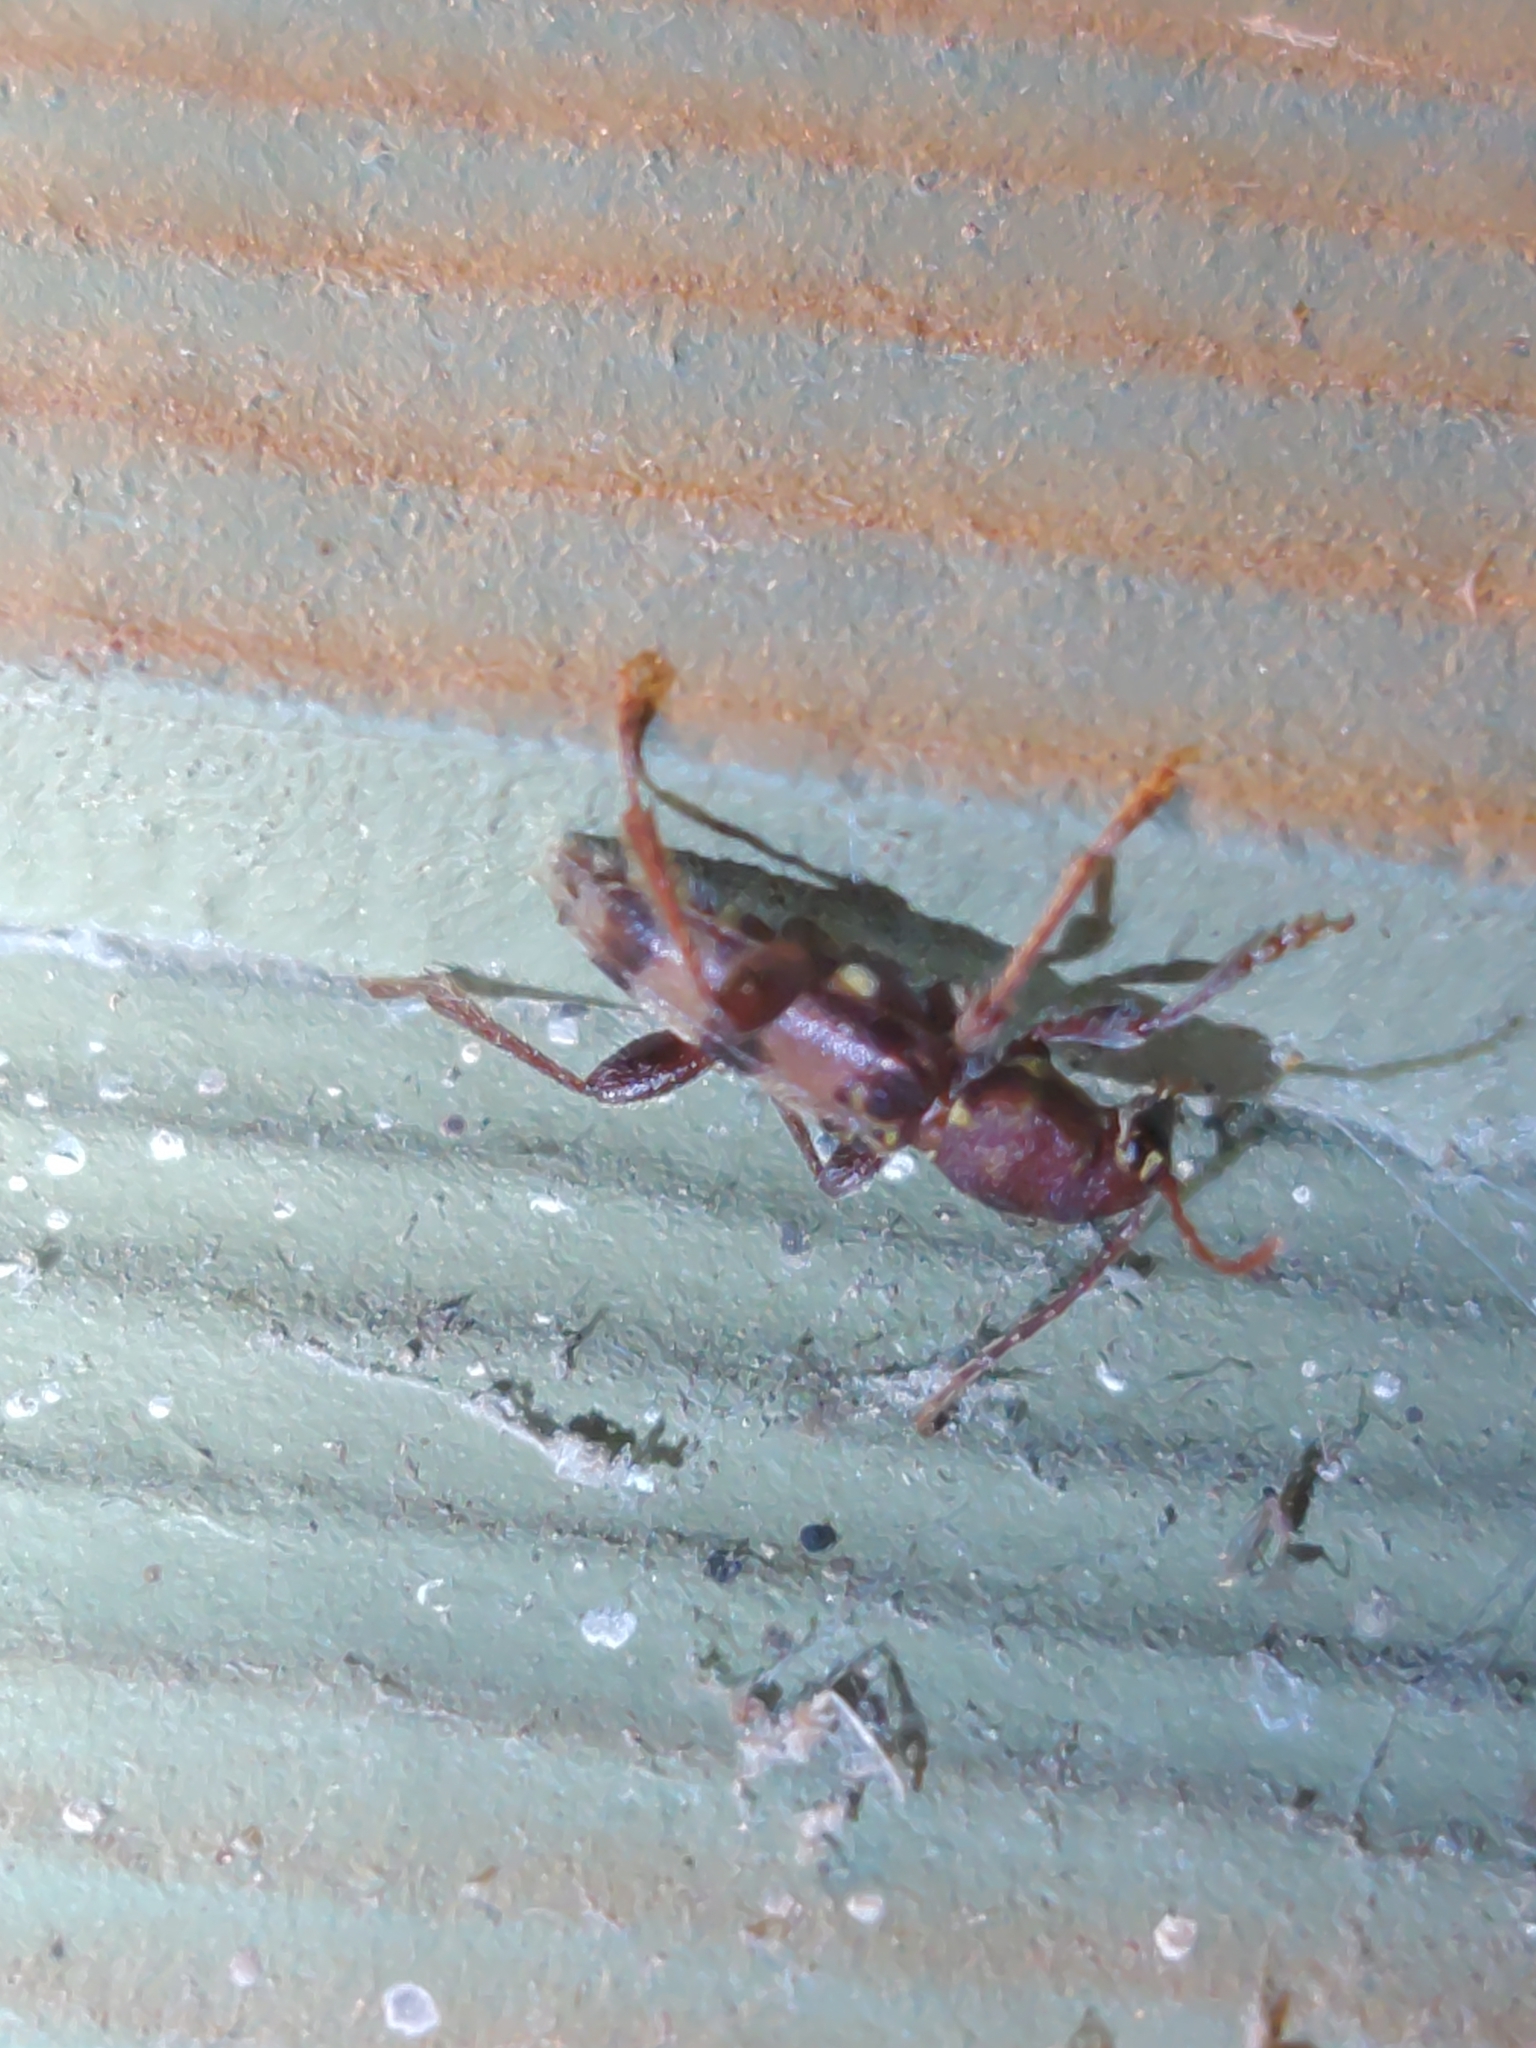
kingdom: Animalia
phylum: Arthropoda
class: Insecta
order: Coleoptera
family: Cerambycidae
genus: Xylotrechus
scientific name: Xylotrechus colonus
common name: Long-horned beetle
